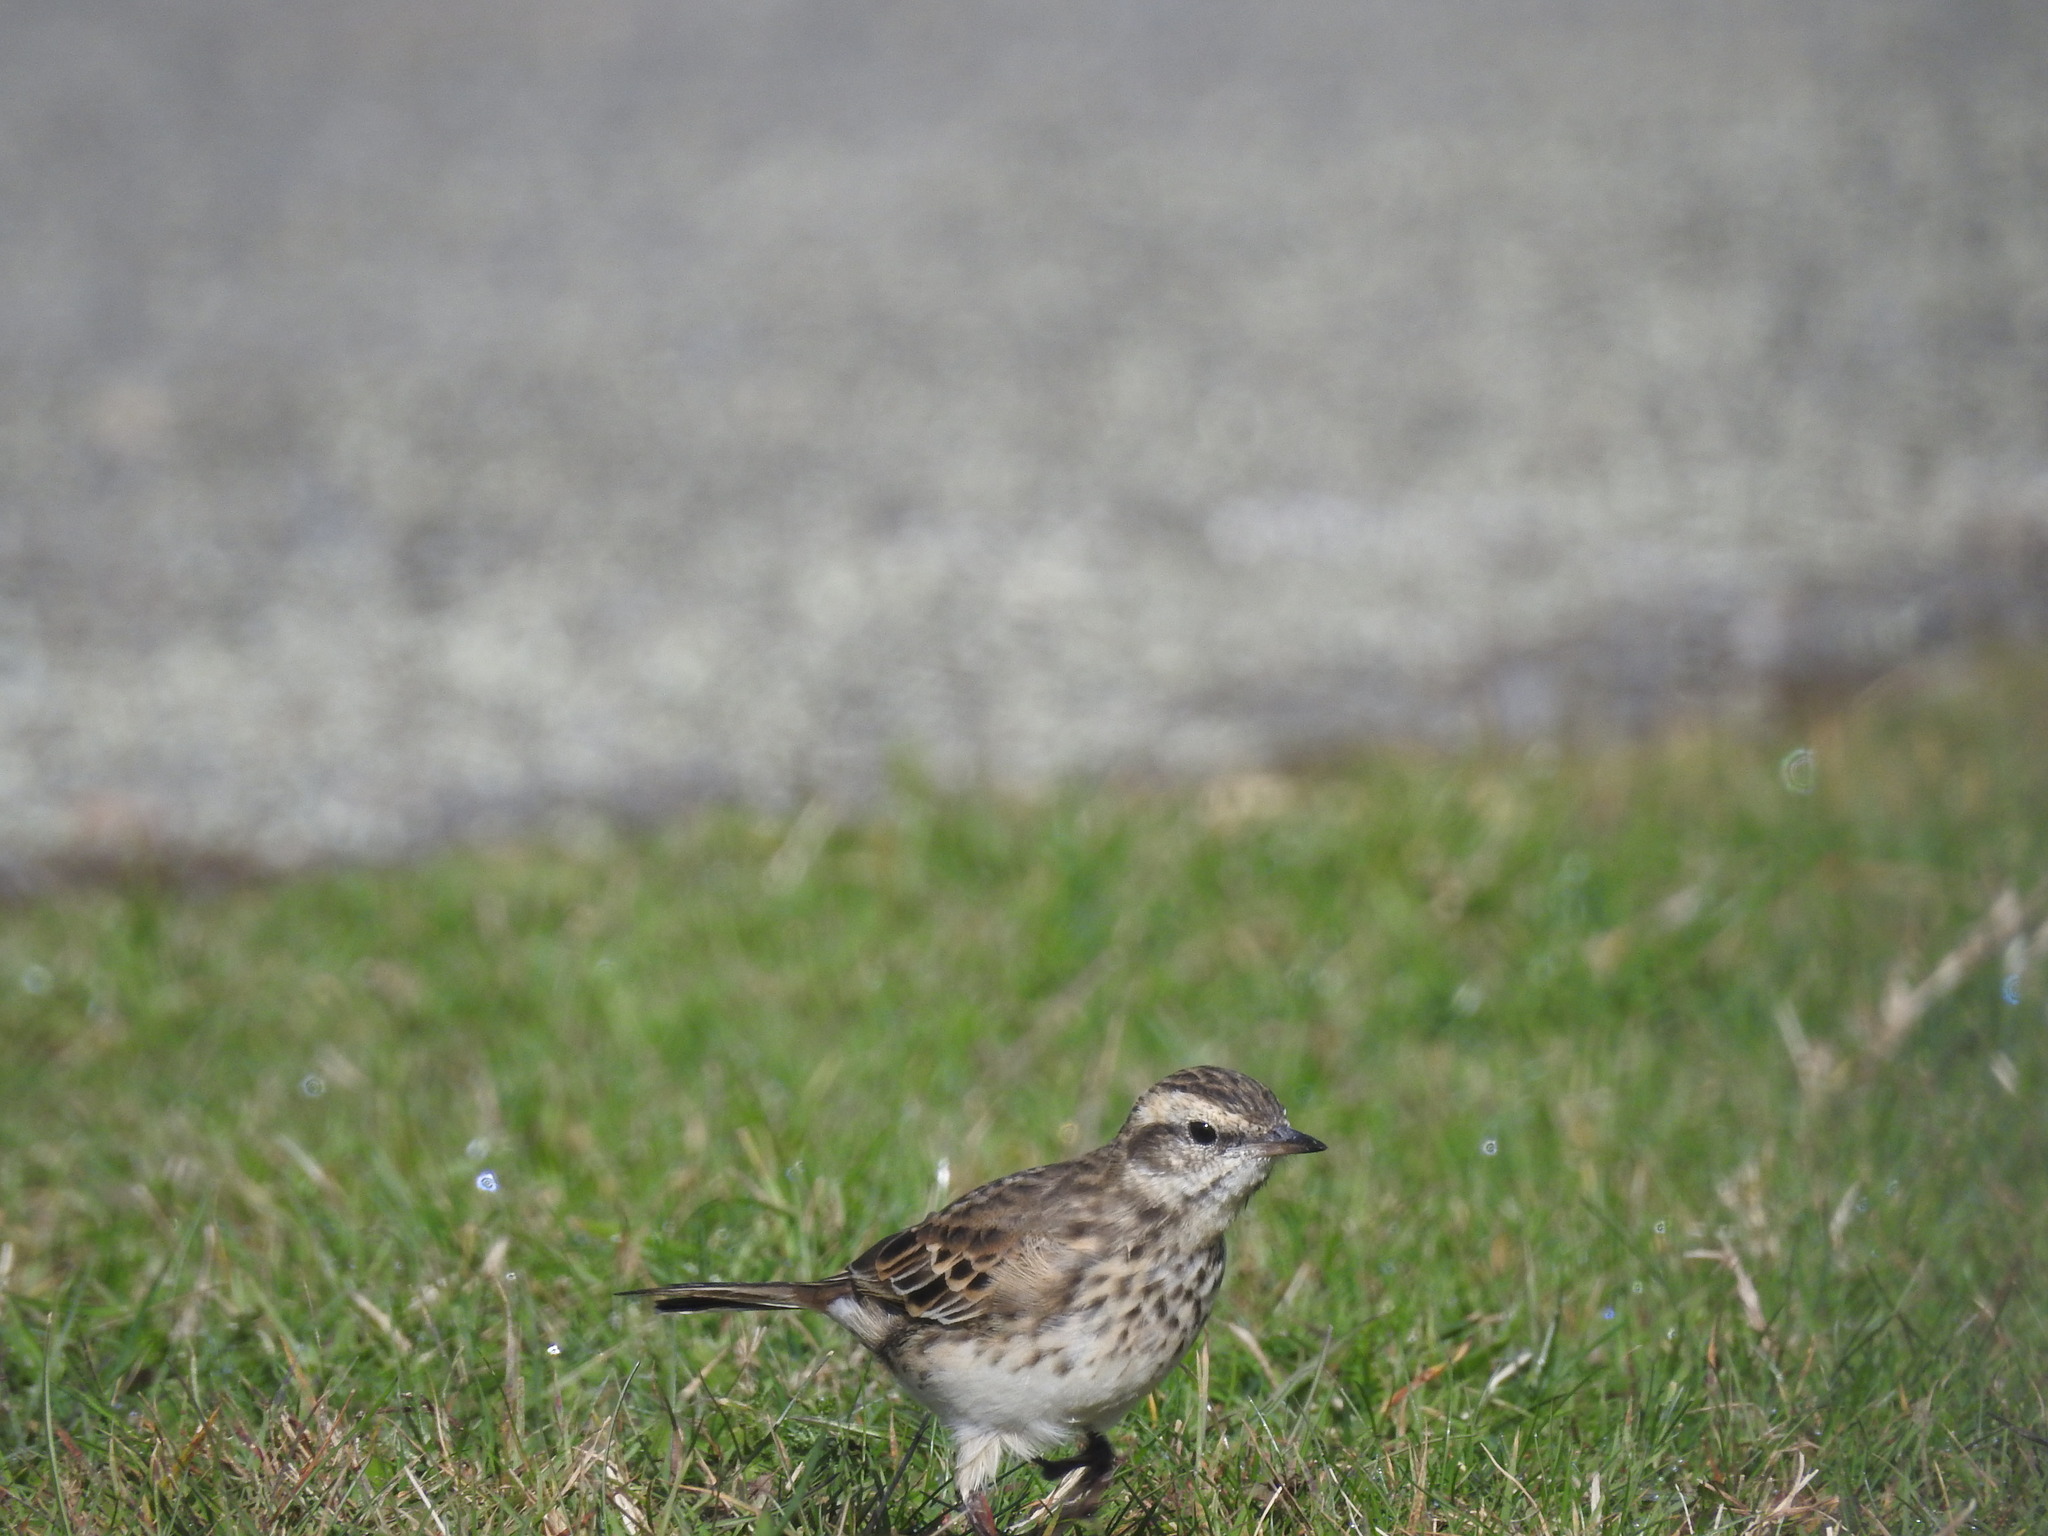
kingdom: Animalia
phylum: Chordata
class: Aves
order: Passeriformes
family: Motacillidae
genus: Anthus
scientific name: Anthus novaeseelandiae
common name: New zealand pipit
